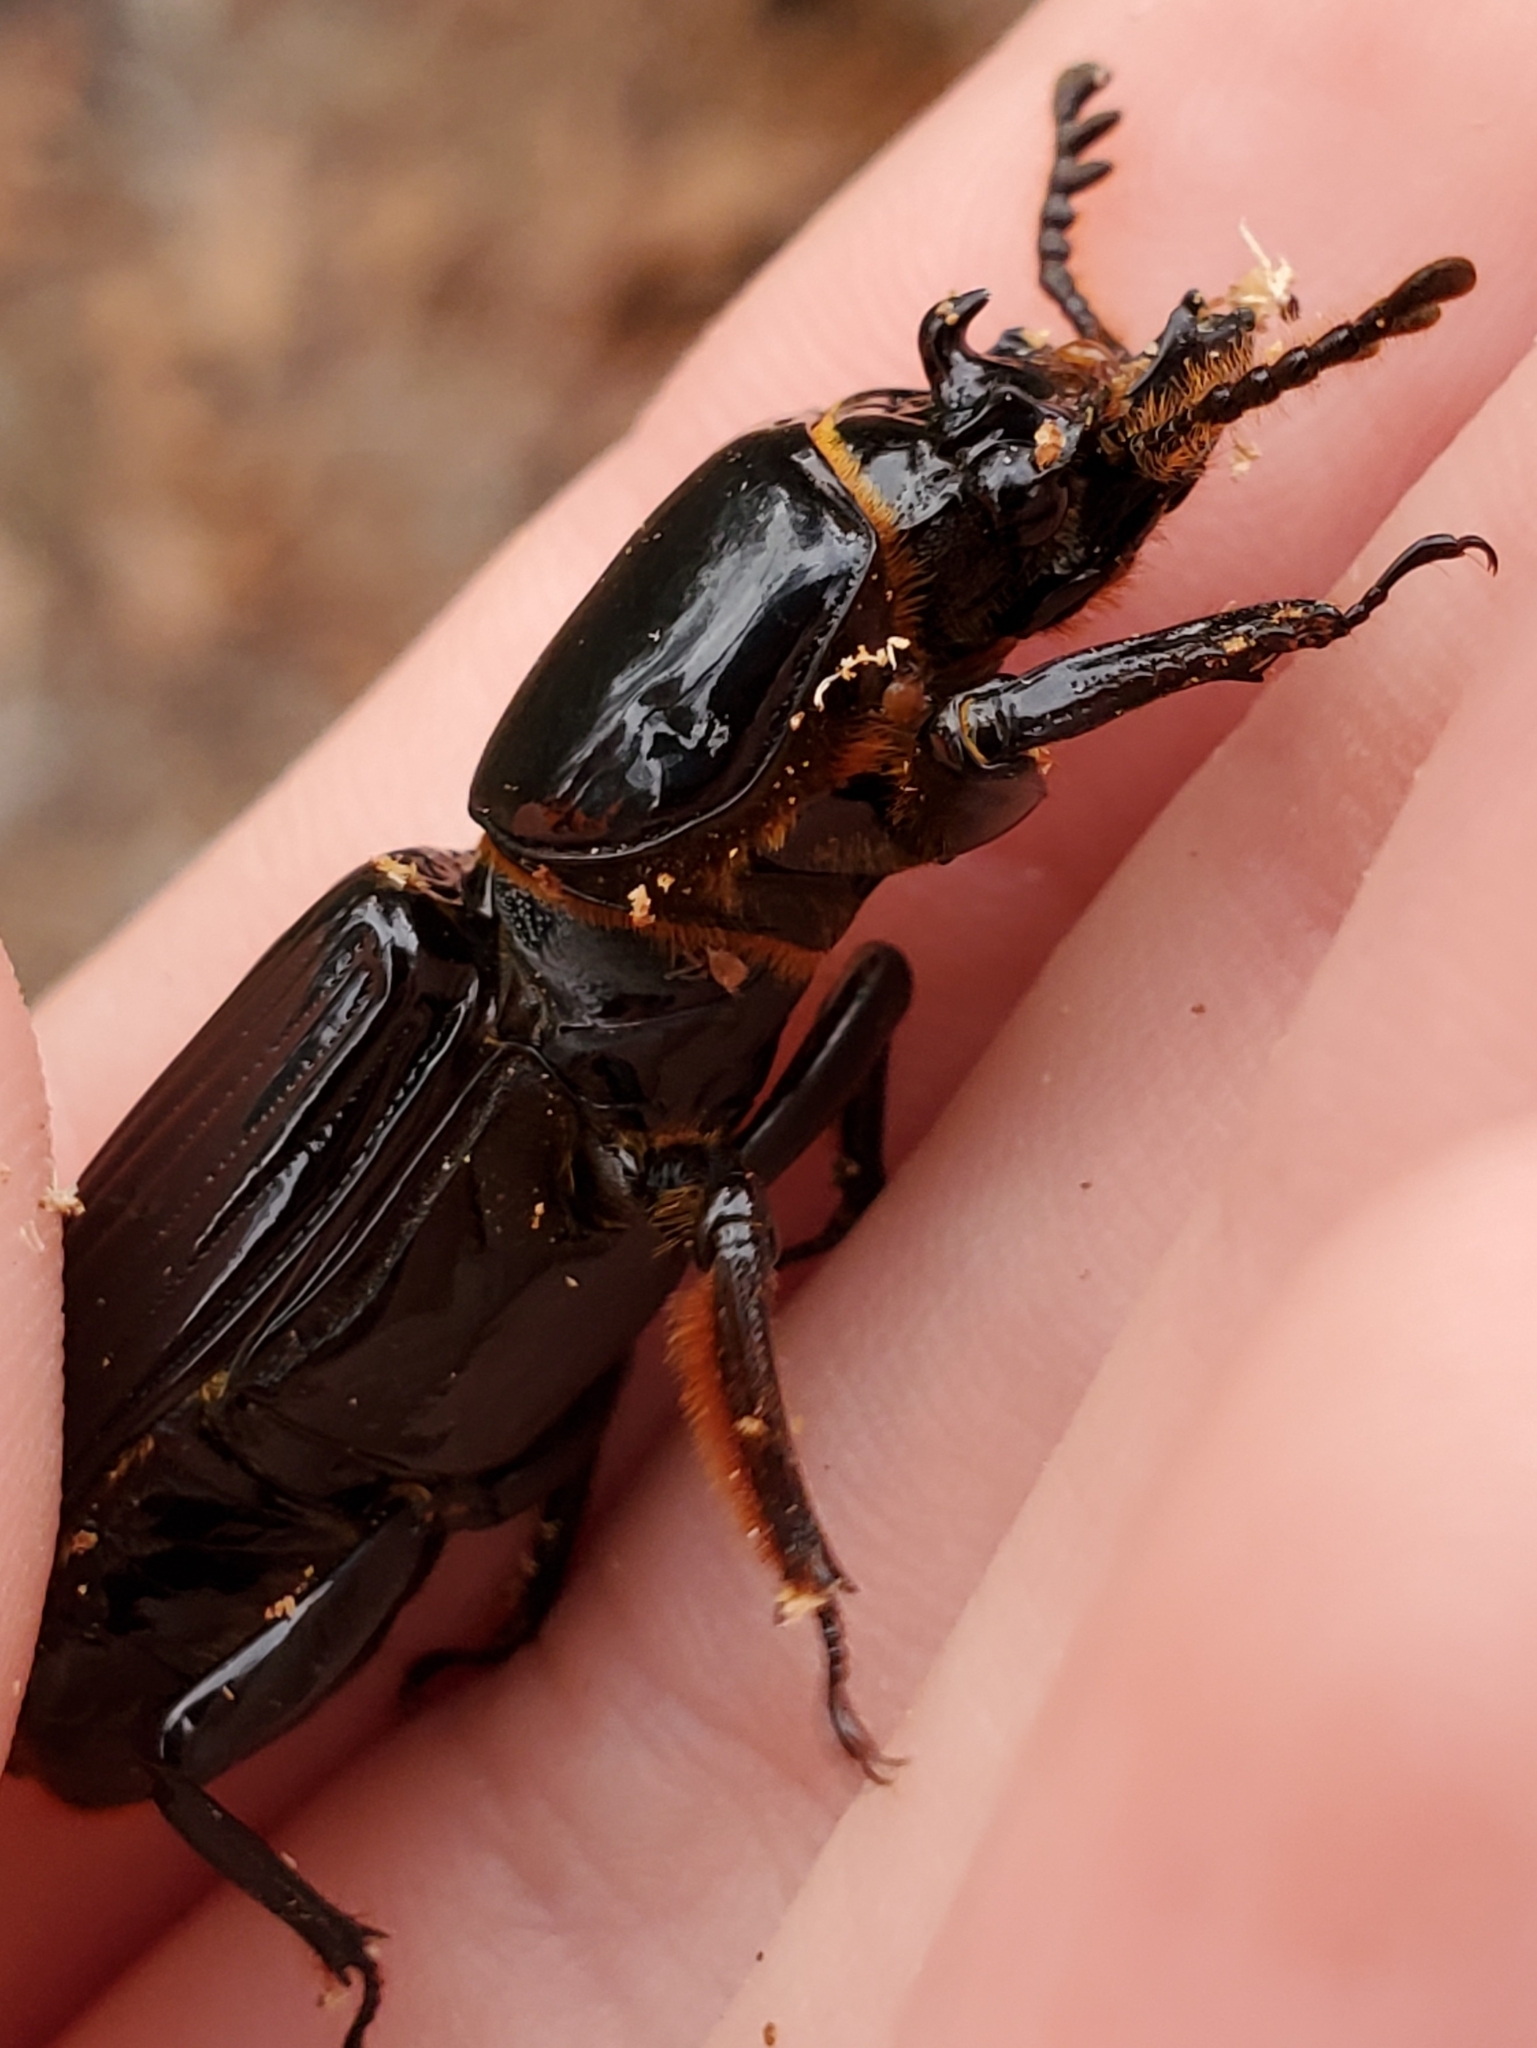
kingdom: Animalia
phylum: Arthropoda
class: Insecta
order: Coleoptera
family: Passalidae
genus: Odontotaenius
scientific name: Odontotaenius disjunctus
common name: Patent leather beetle
